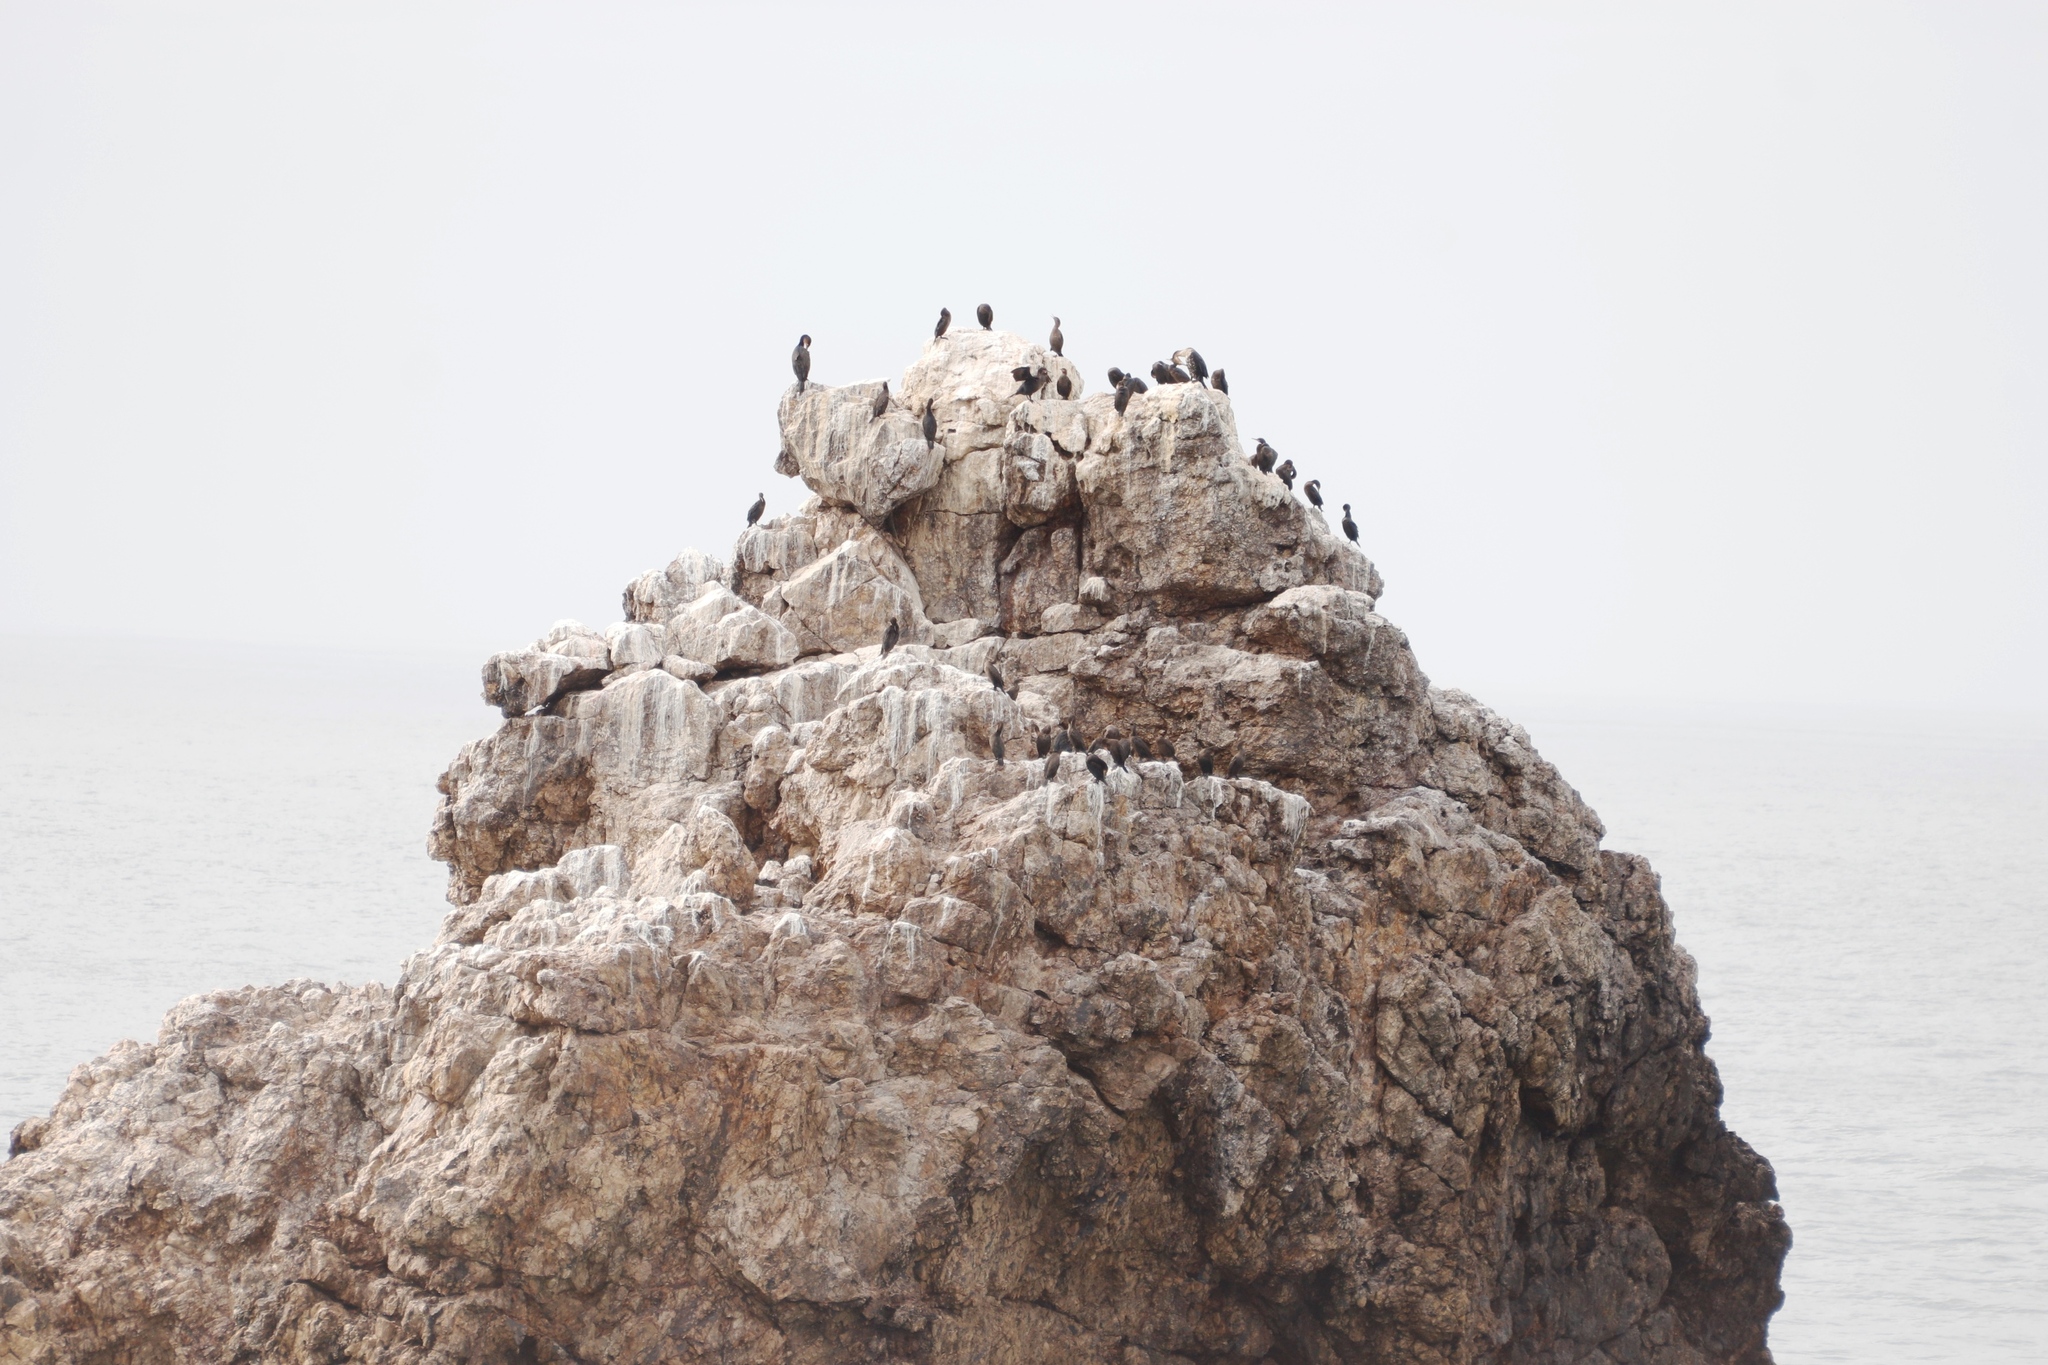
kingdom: Animalia
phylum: Chordata
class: Aves
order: Suliformes
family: Phalacrocoracidae
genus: Phalacrocorax
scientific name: Phalacrocorax capensis
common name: Cape cormorant
